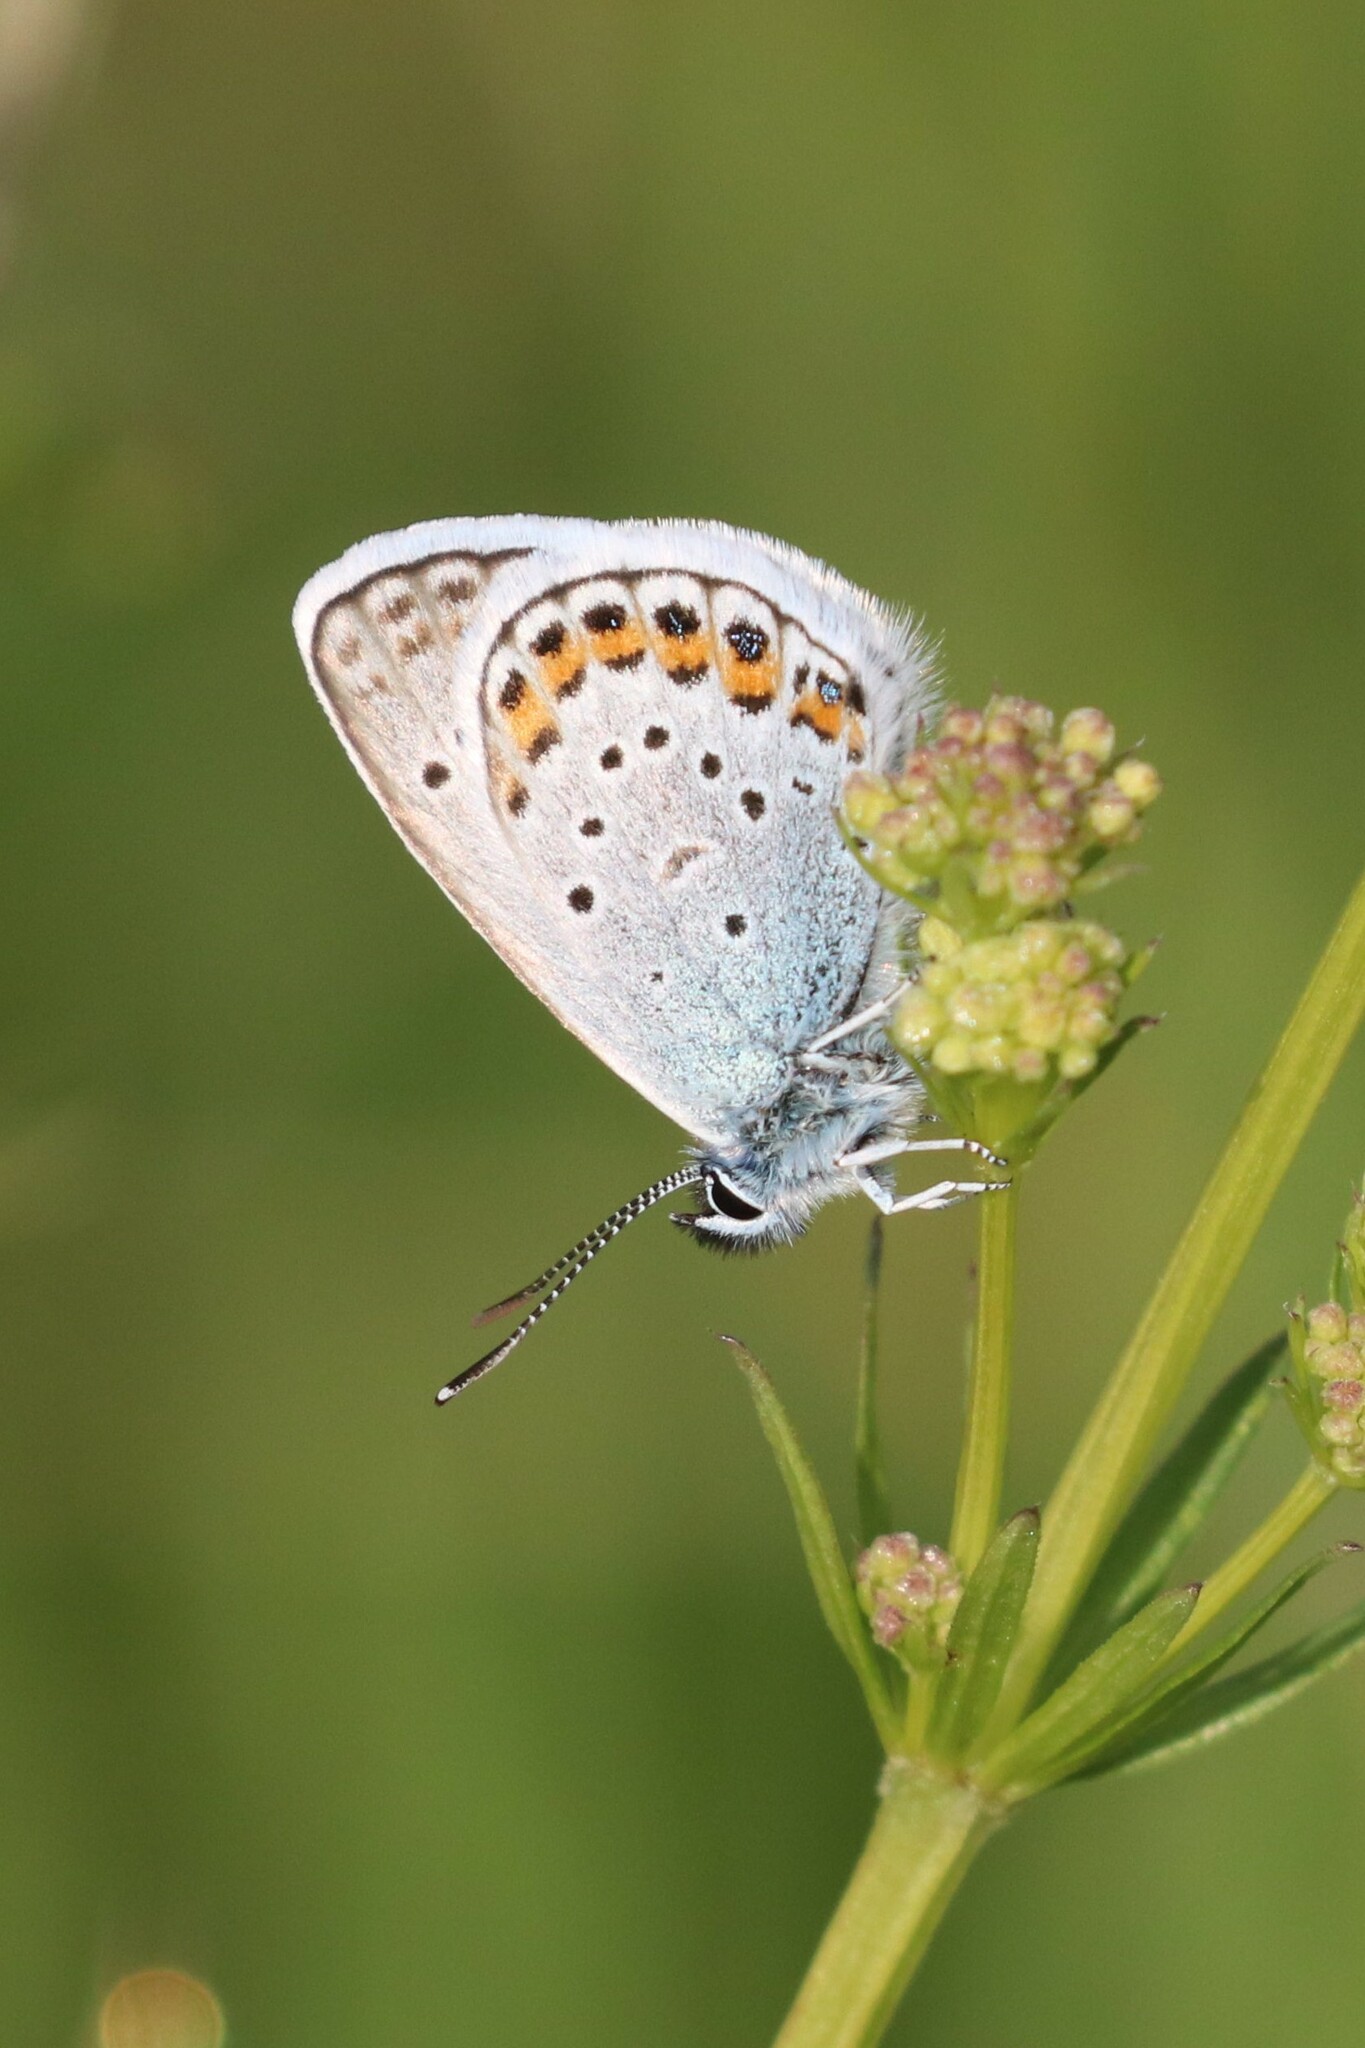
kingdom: Animalia
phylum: Arthropoda
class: Insecta
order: Lepidoptera
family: Lycaenidae
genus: Plebejus
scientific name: Plebejus argus
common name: Silver-studded blue
